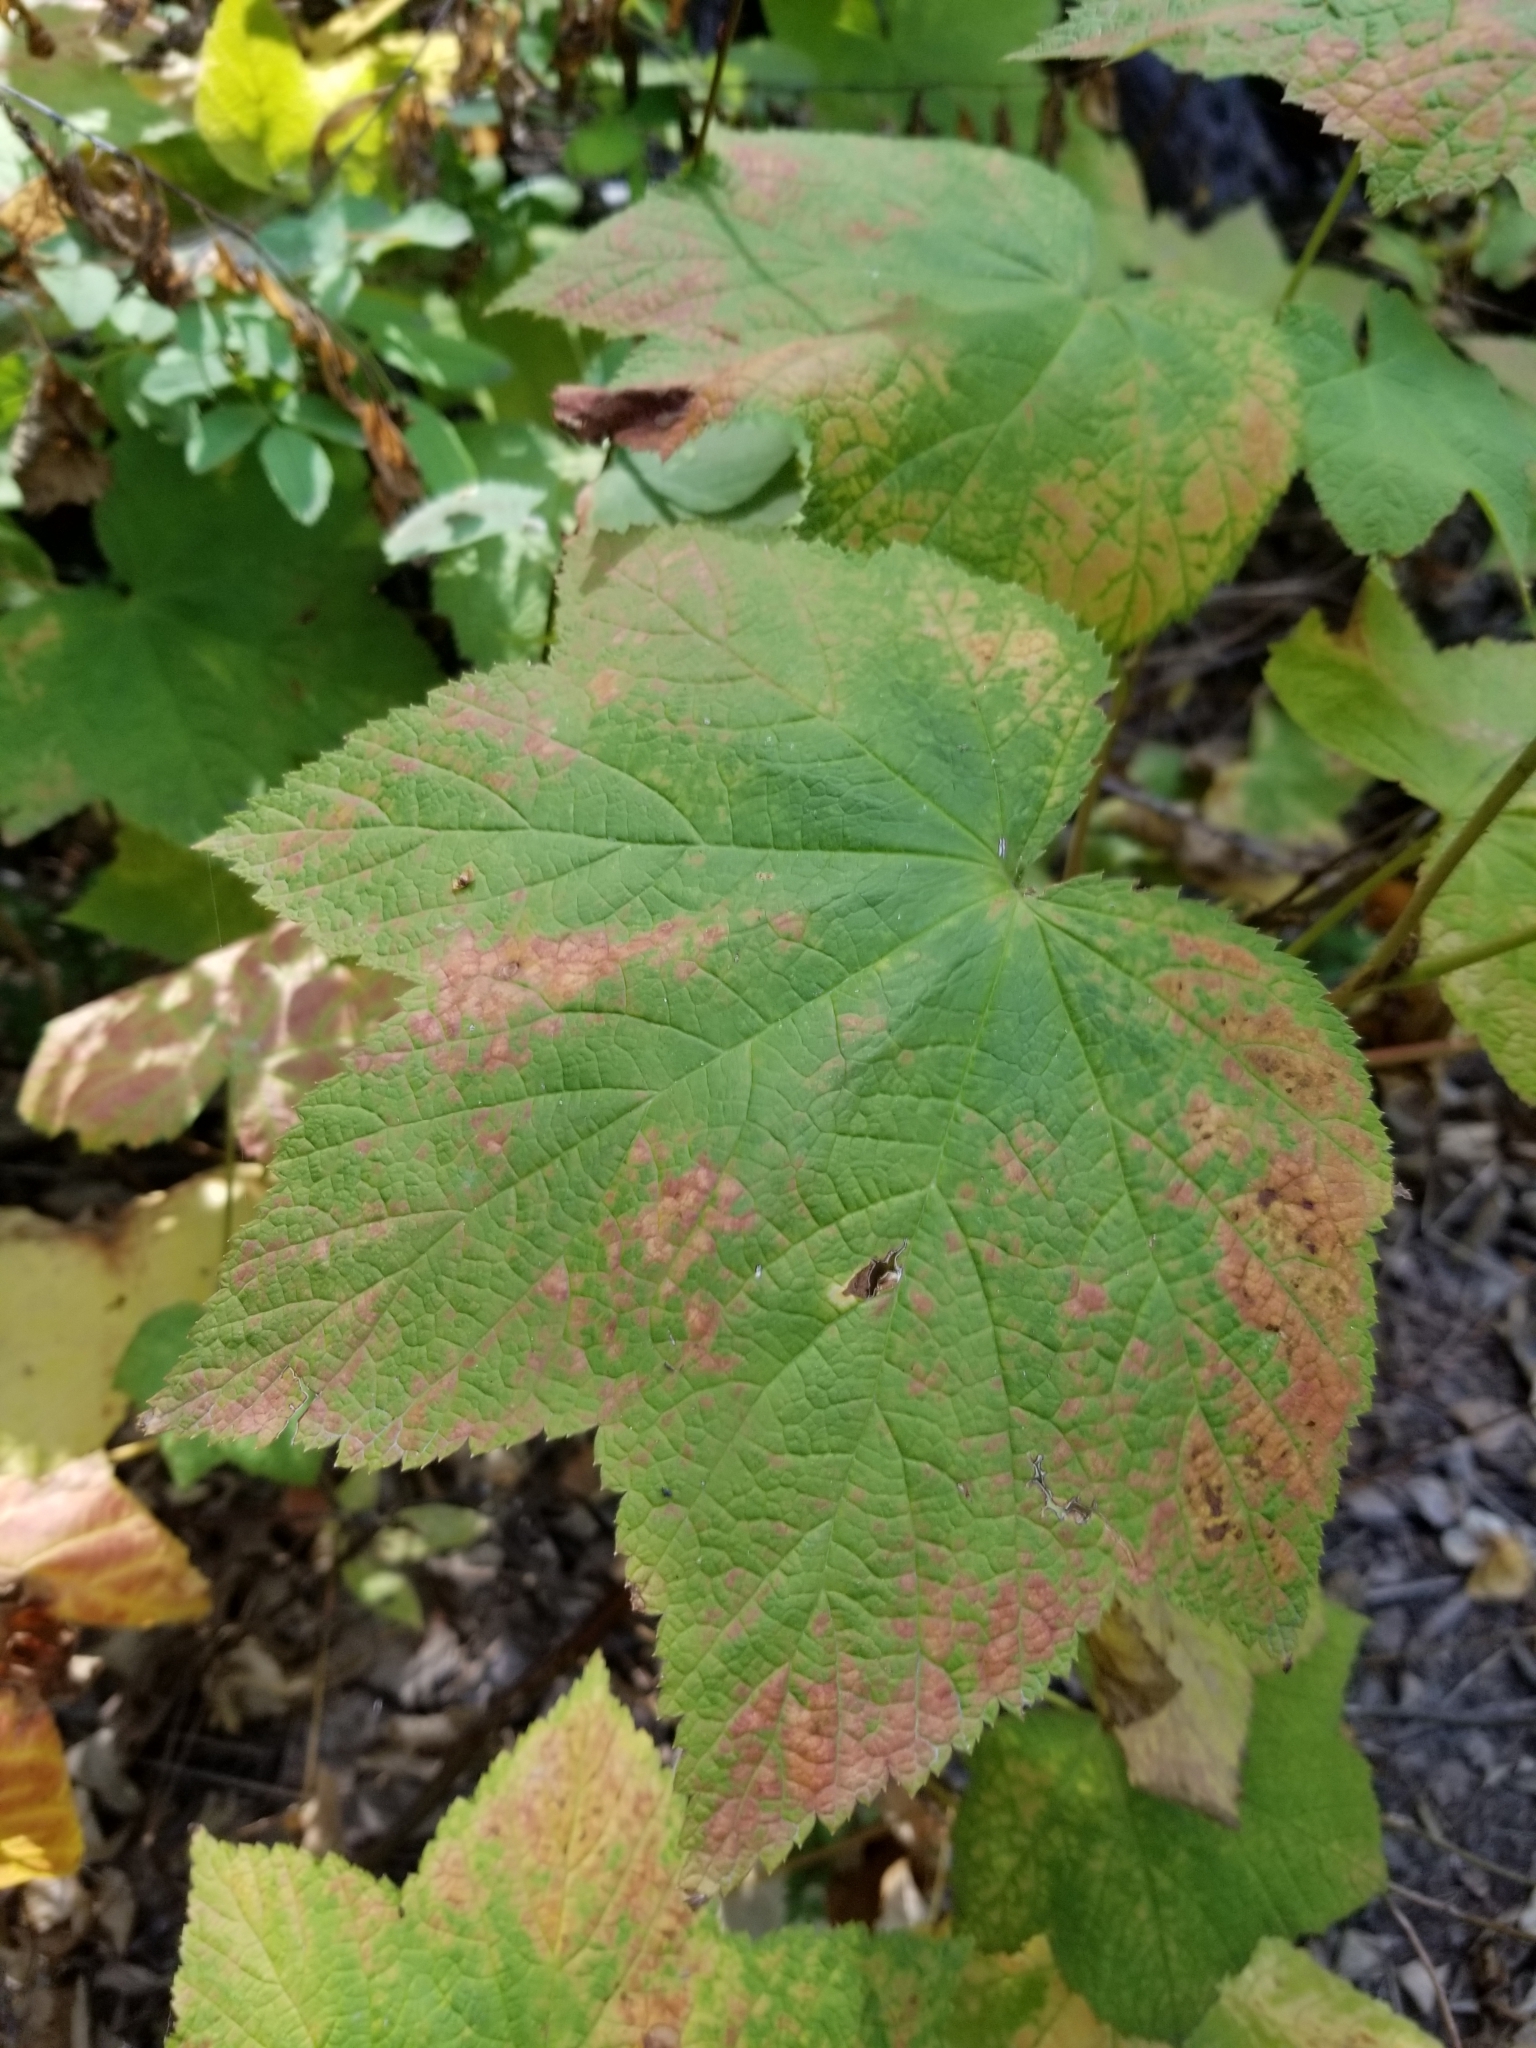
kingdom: Plantae
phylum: Tracheophyta
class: Magnoliopsida
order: Rosales
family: Rosaceae
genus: Rubus
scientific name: Rubus parviflorus
